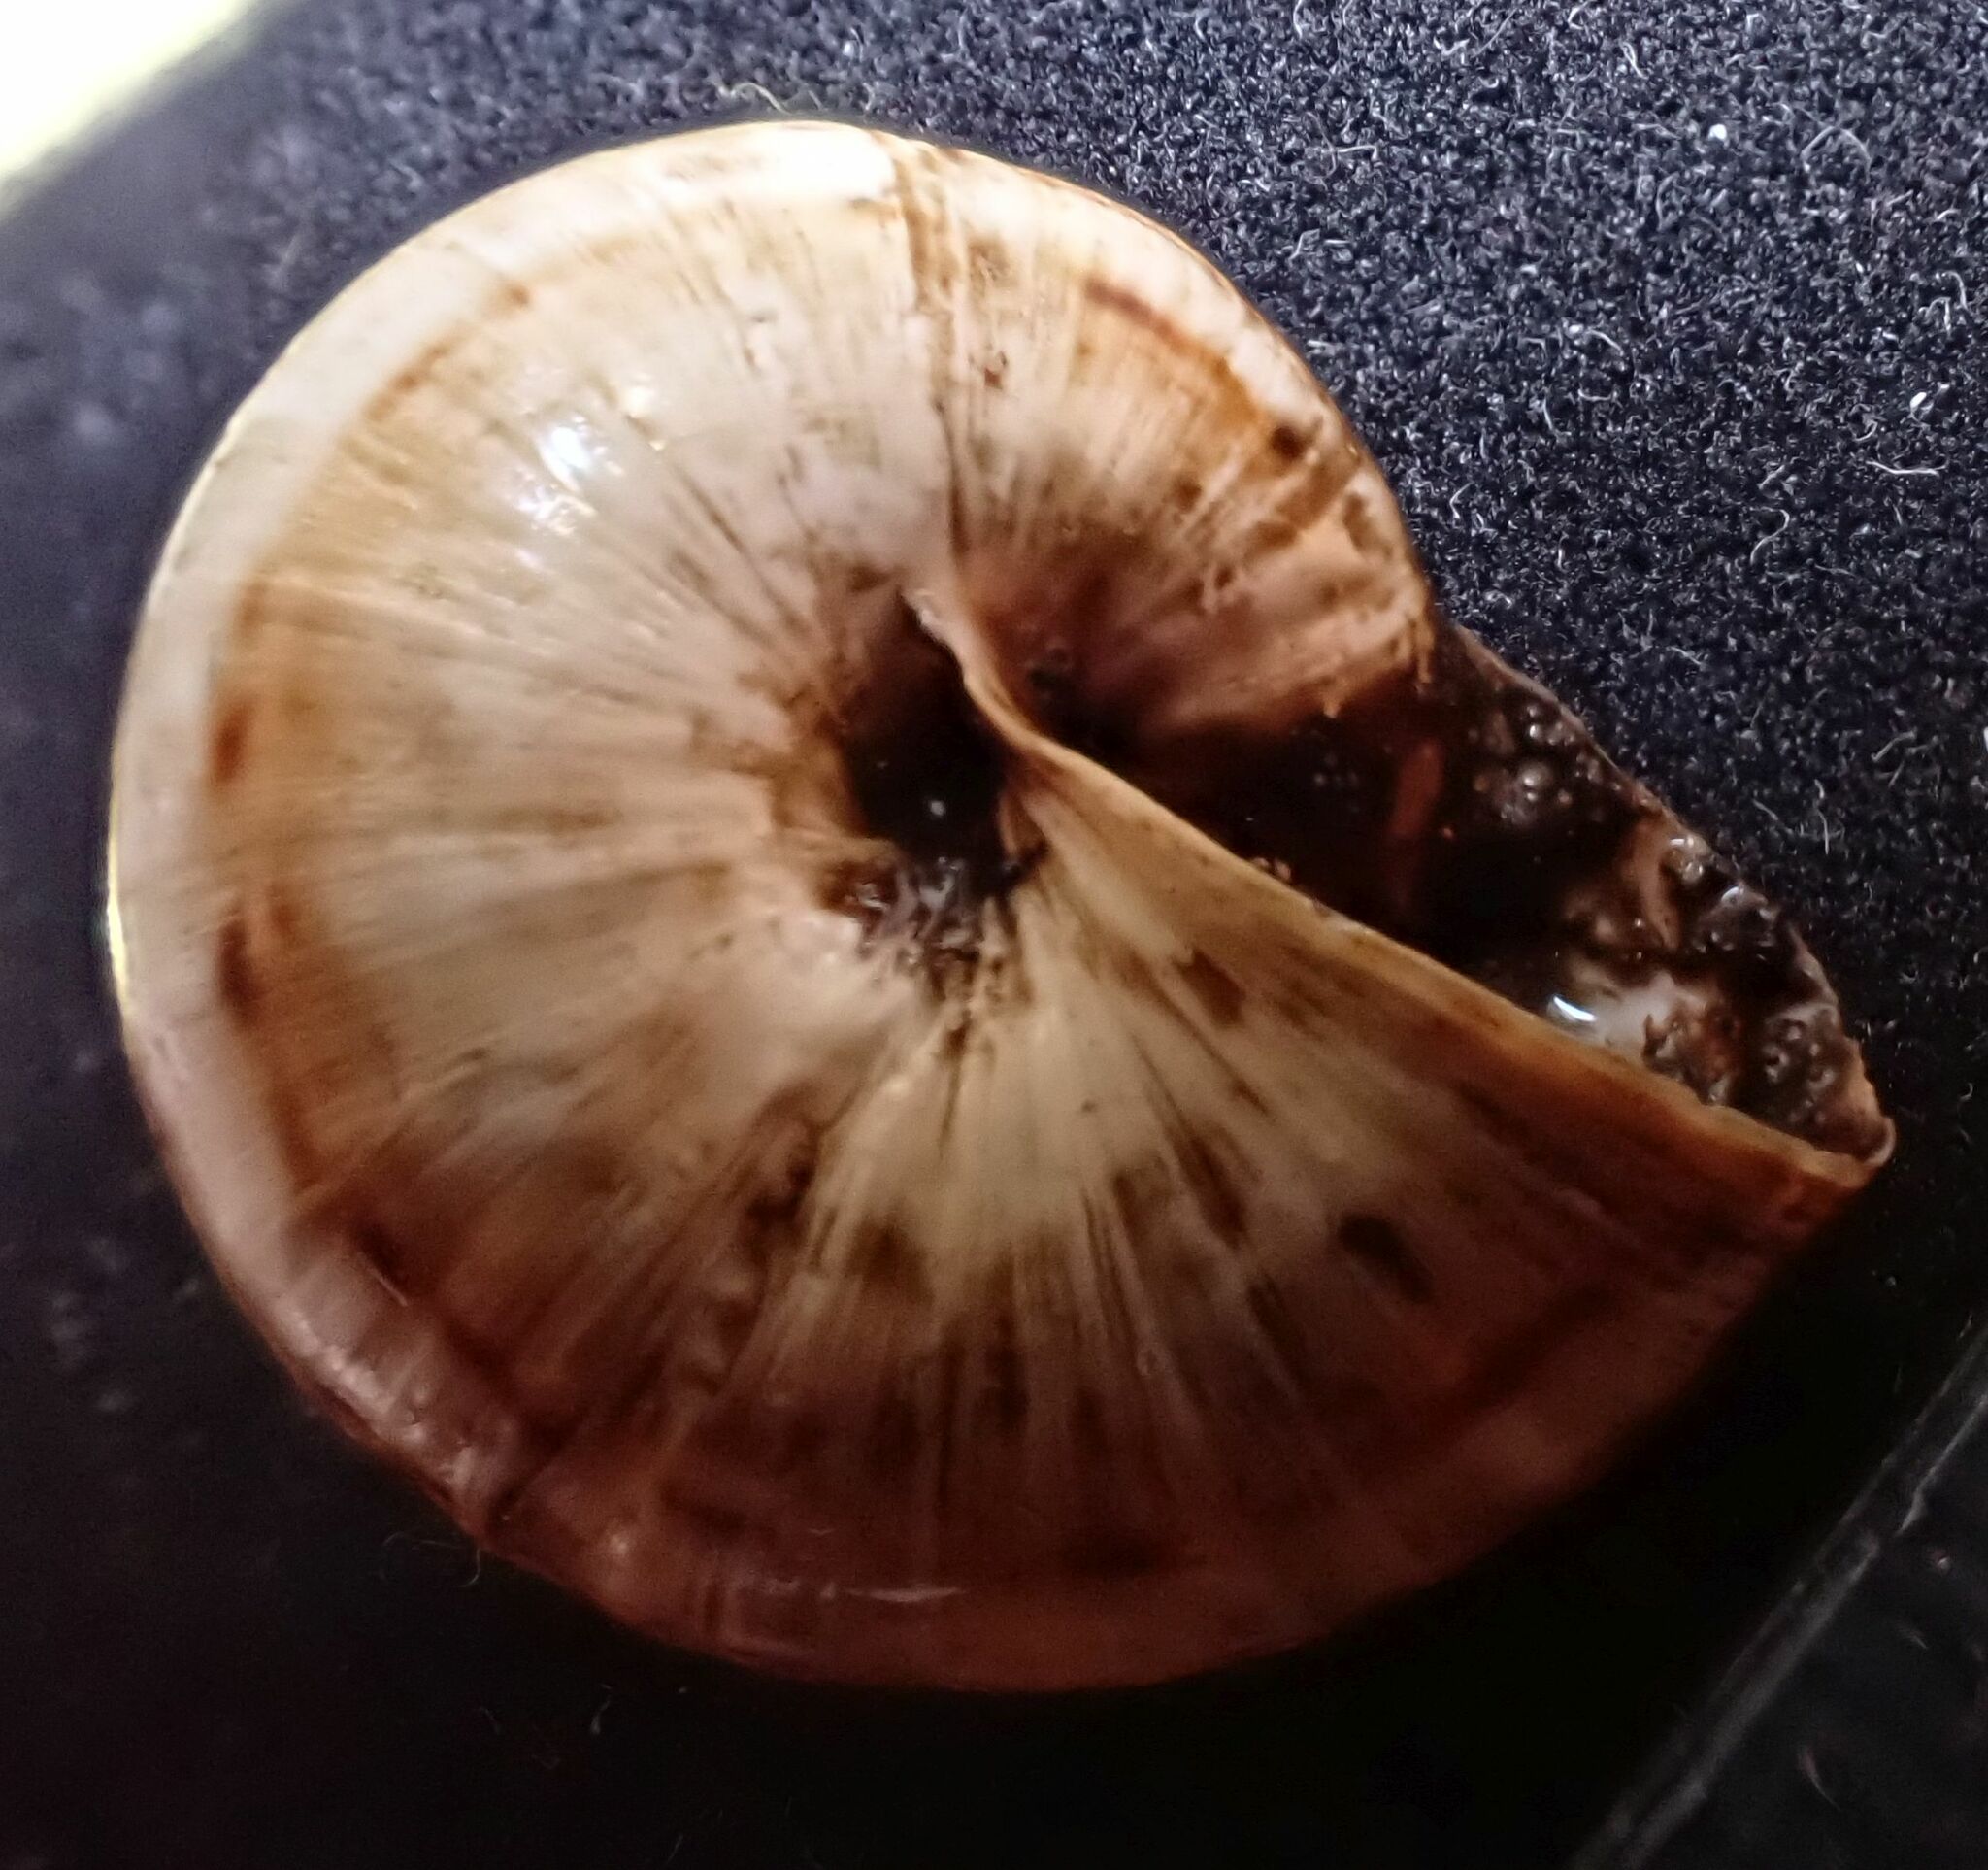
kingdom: Animalia
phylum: Mollusca
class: Gastropoda
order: Stylommatophora
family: Helicidae
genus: Theba
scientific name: Theba pisana
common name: White snail
